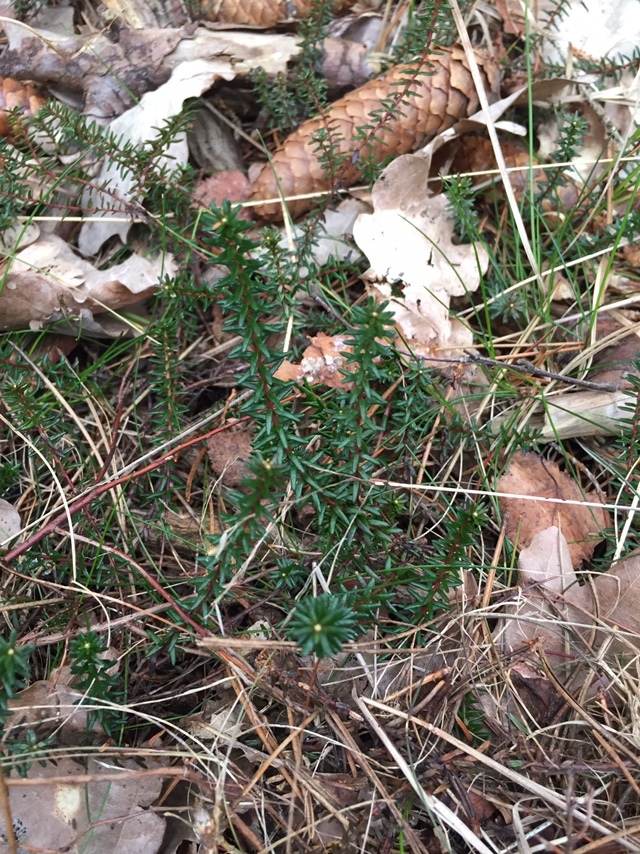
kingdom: Plantae
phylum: Tracheophyta
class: Magnoliopsida
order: Ericales
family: Ericaceae
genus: Empetrum
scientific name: Empetrum nigrum
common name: Black crowberry
